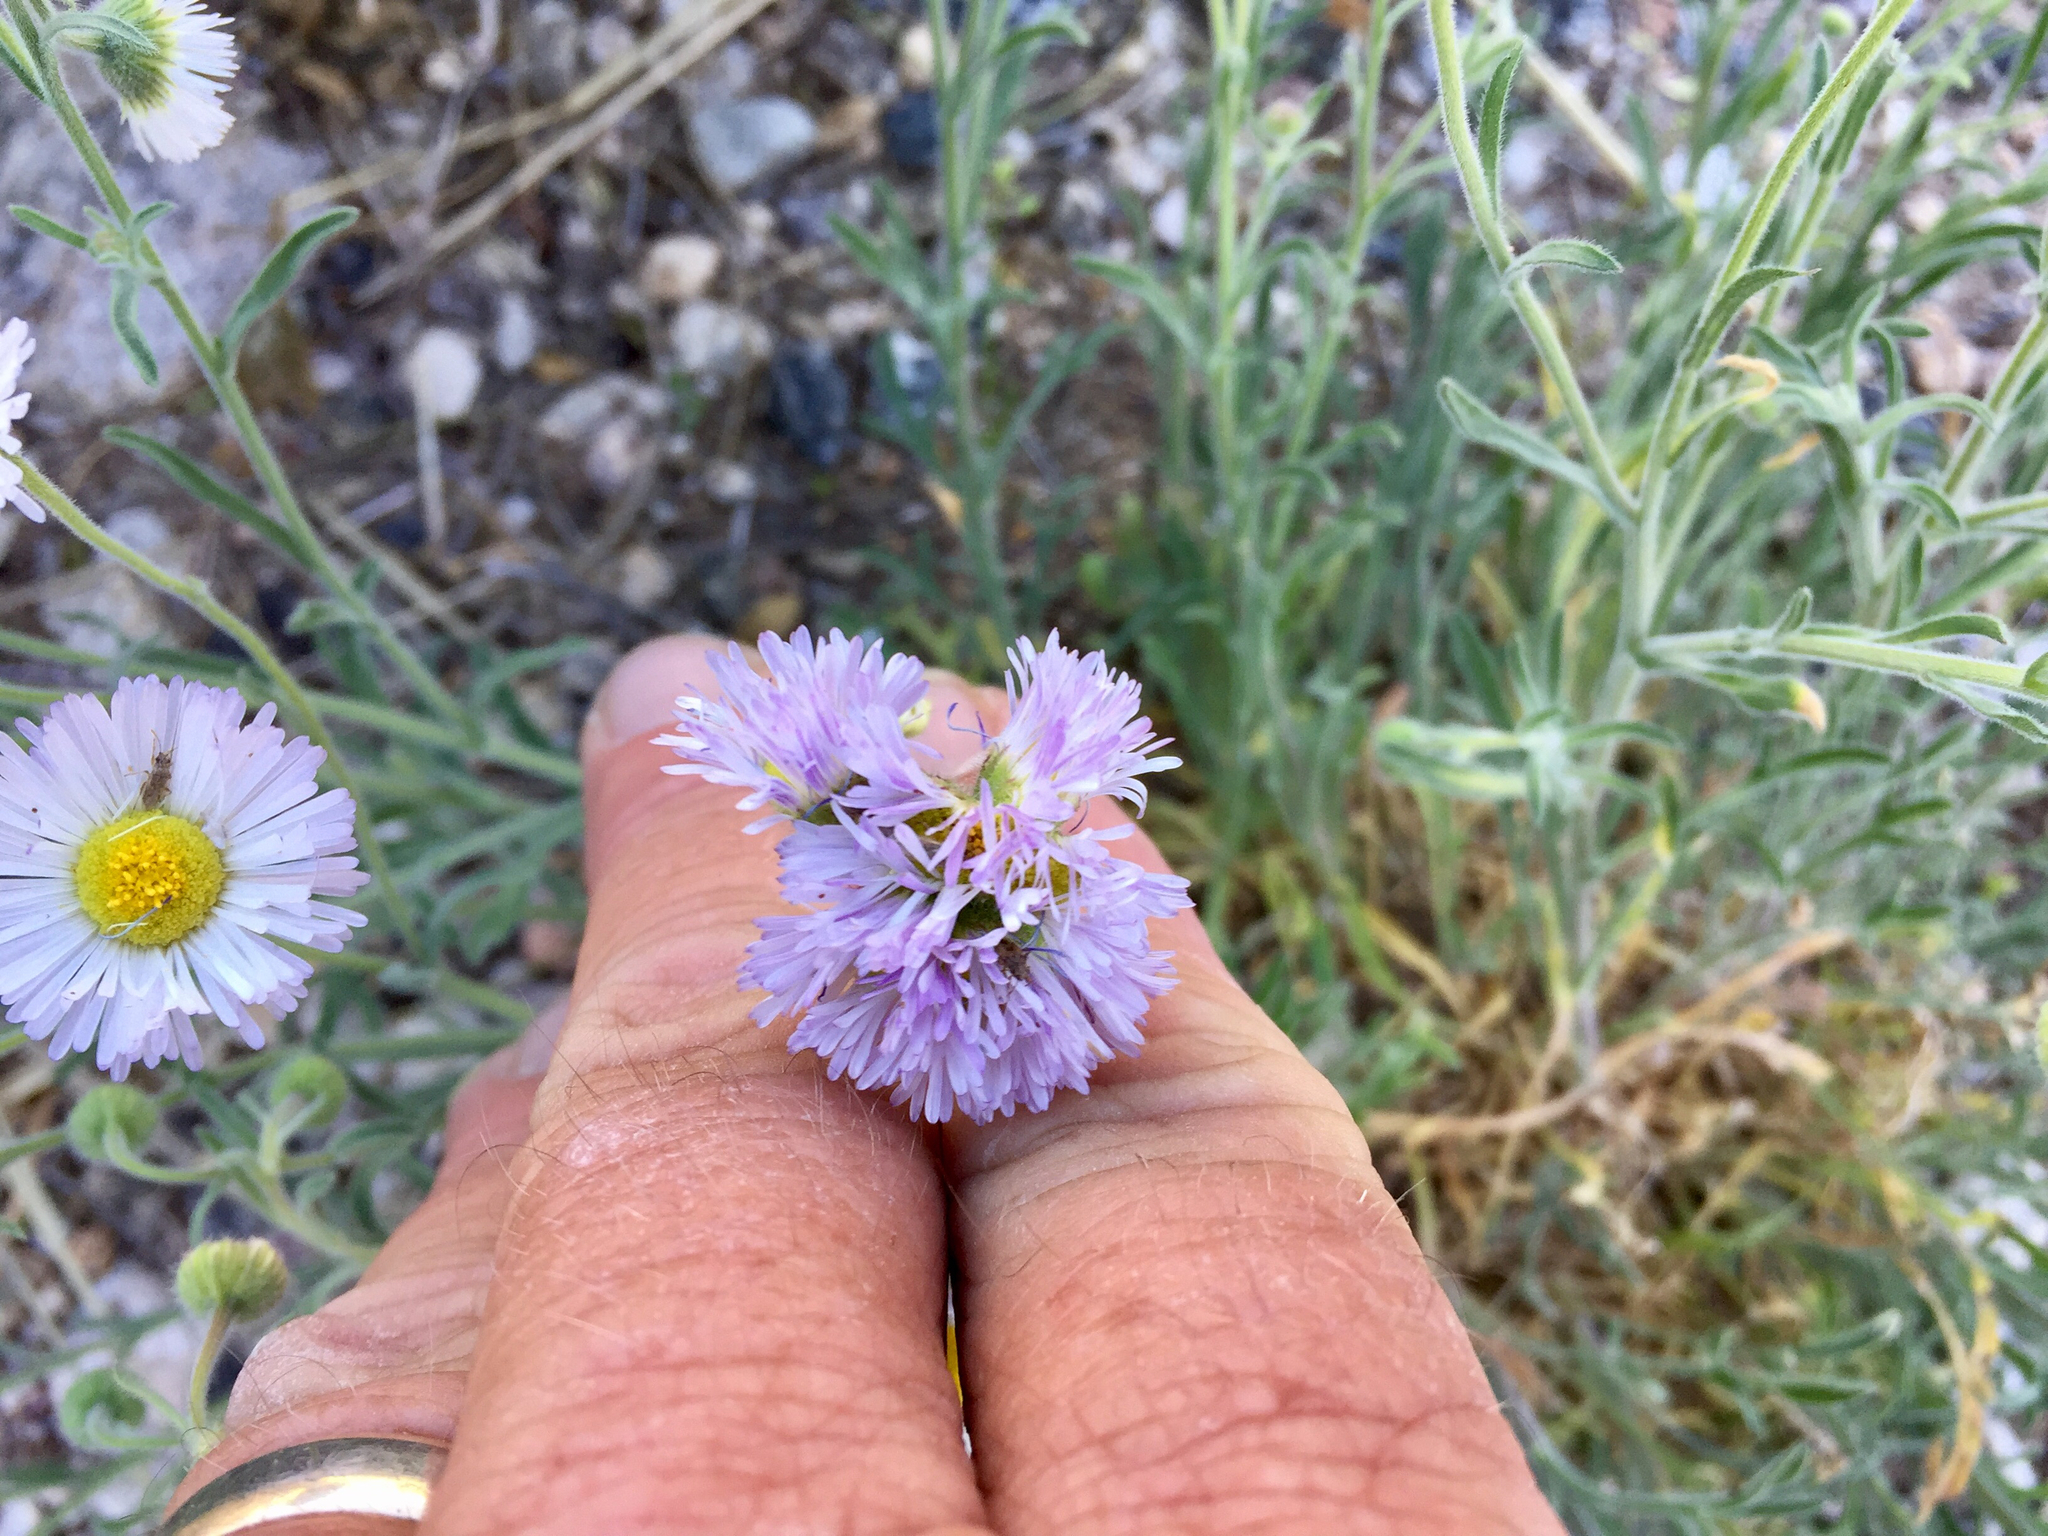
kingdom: Plantae
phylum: Tracheophyta
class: Magnoliopsida
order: Asterales
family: Asteraceae
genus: Erigeron
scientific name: Erigeron divergens
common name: Diffuse fleabane
